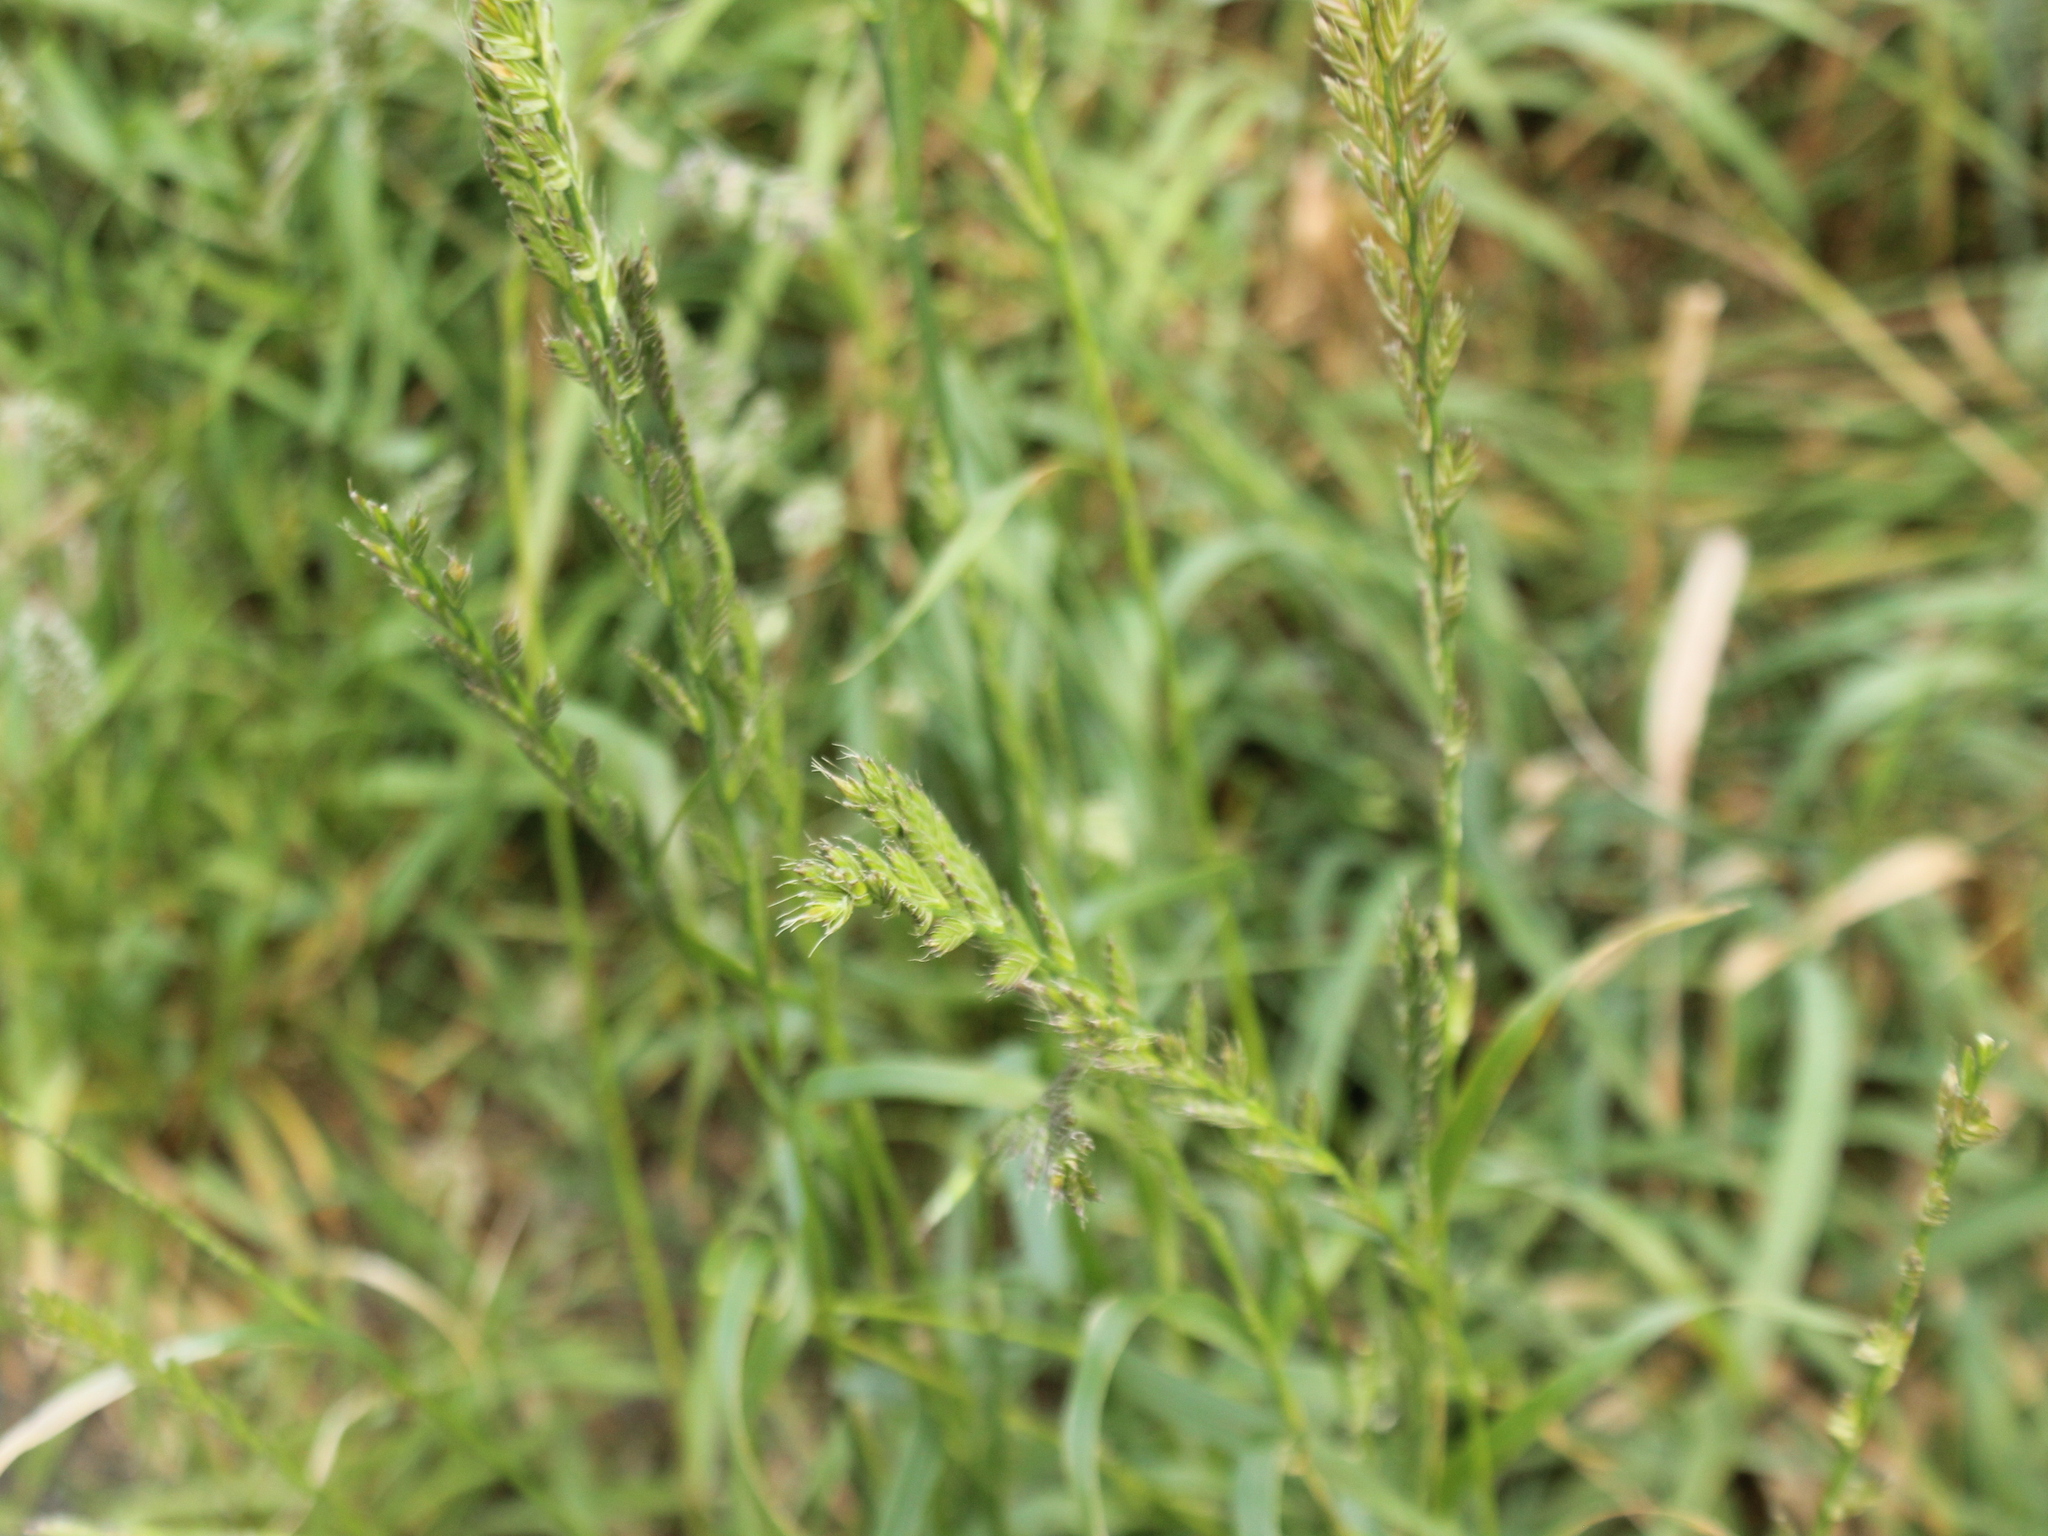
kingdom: Plantae
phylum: Tracheophyta
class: Liliopsida
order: Poales
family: Poaceae
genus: Lolium
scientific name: Lolium multiflorum
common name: Annual ryegrass
